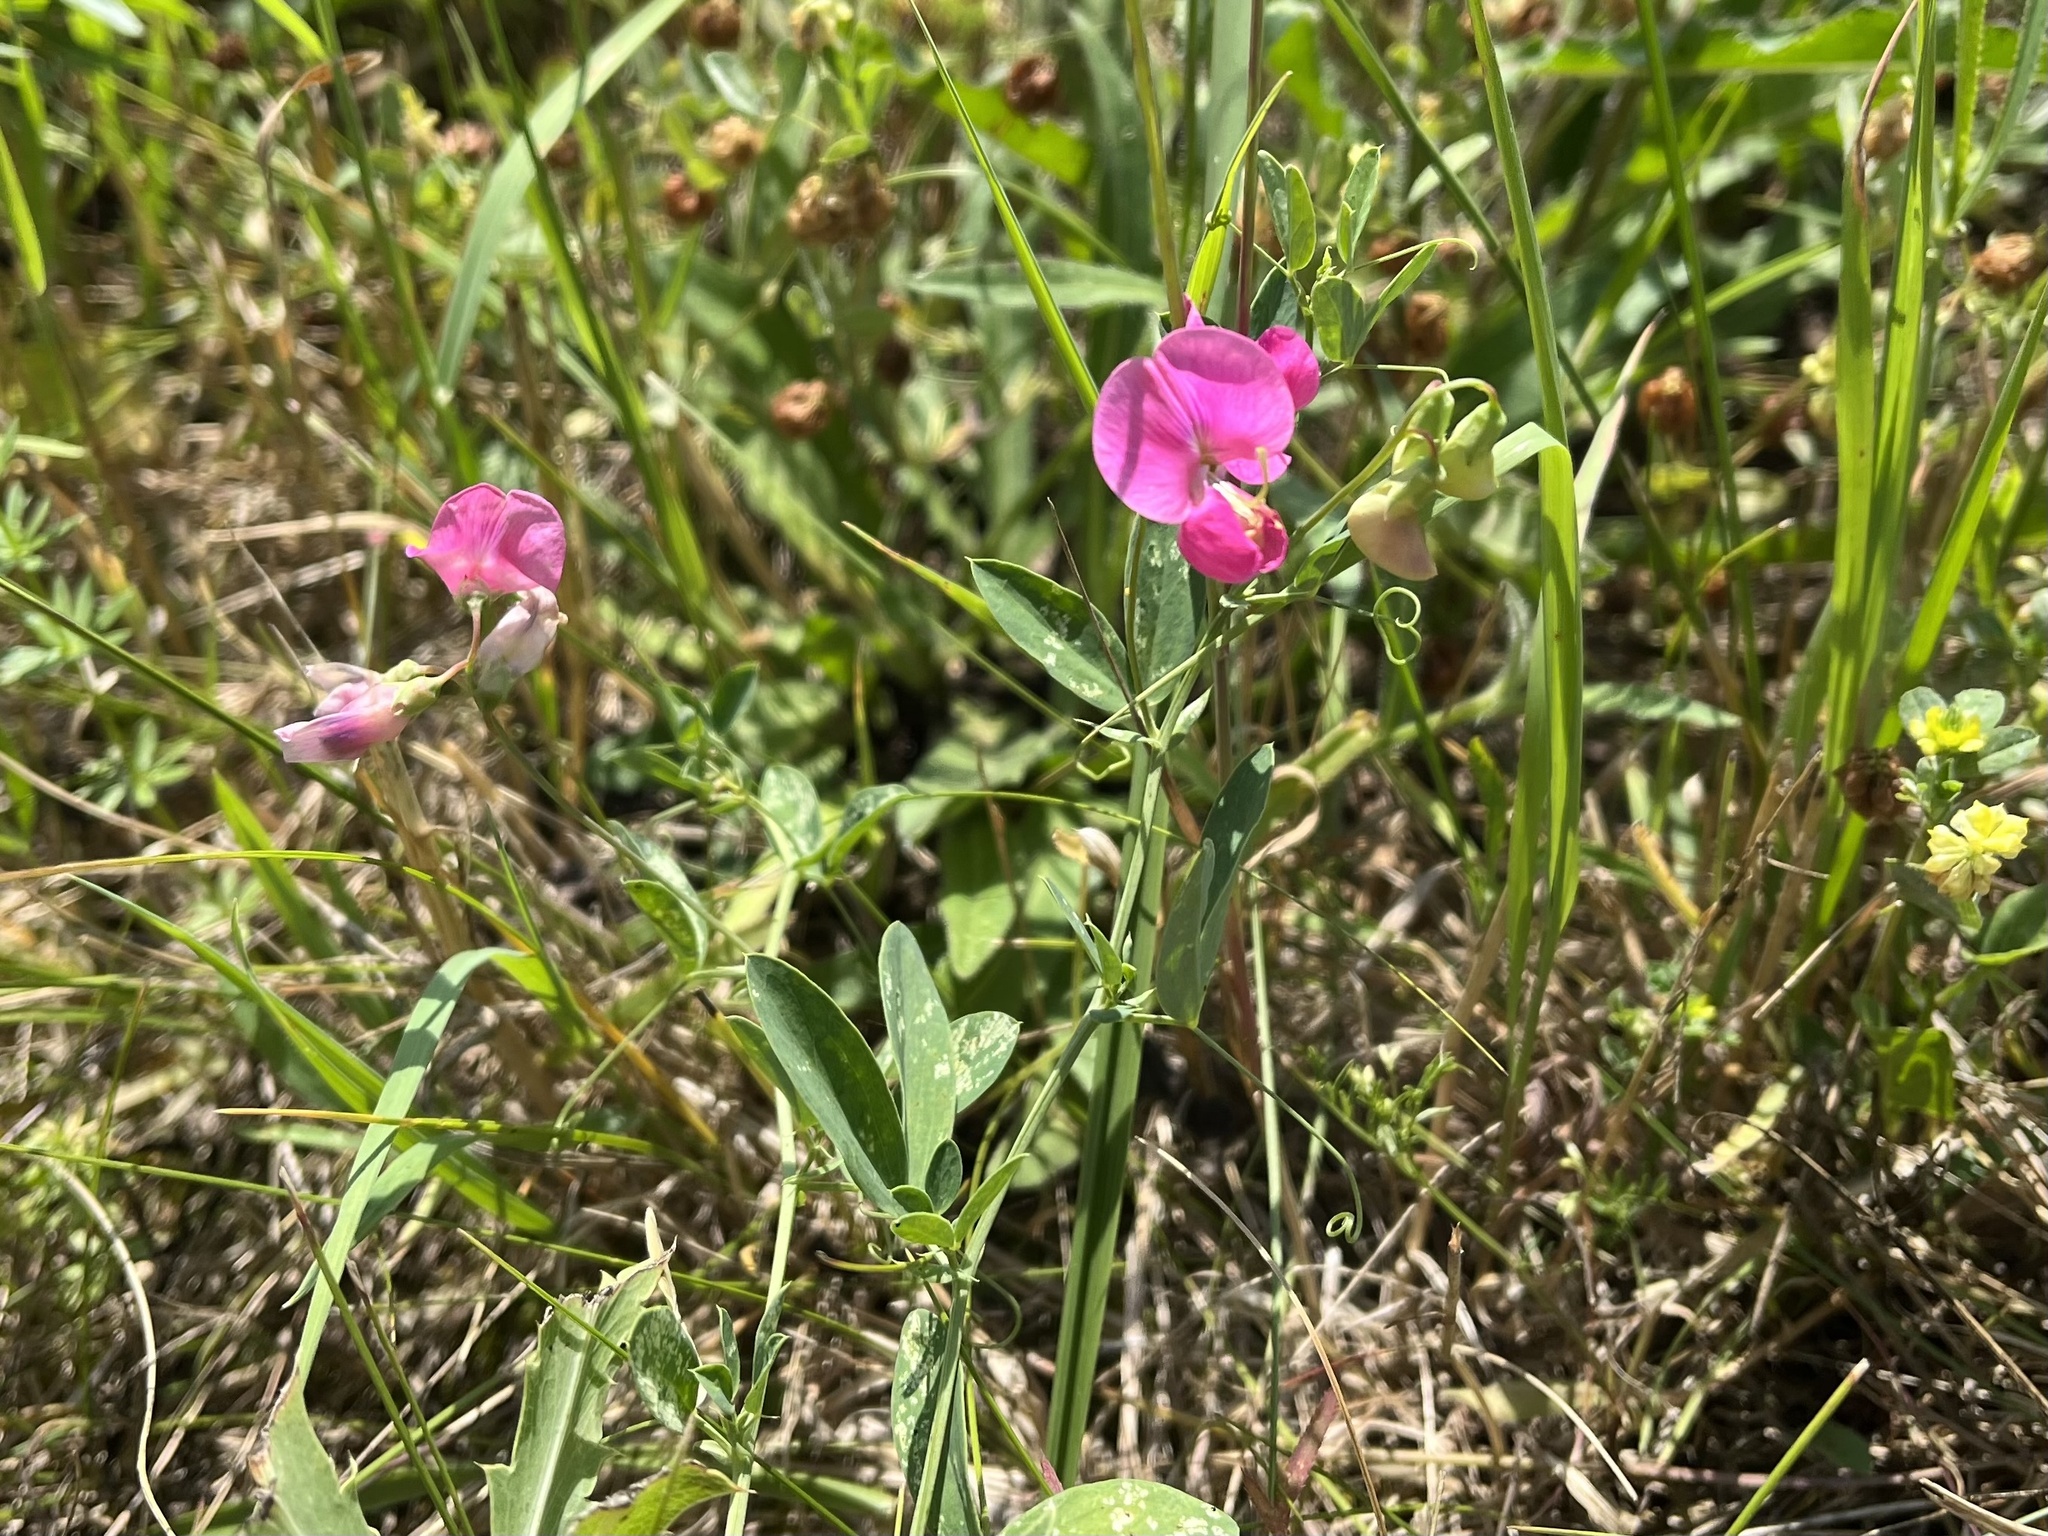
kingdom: Plantae
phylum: Tracheophyta
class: Magnoliopsida
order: Fabales
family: Fabaceae
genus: Lathyrus
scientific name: Lathyrus tuberosus
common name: Tuberous pea
